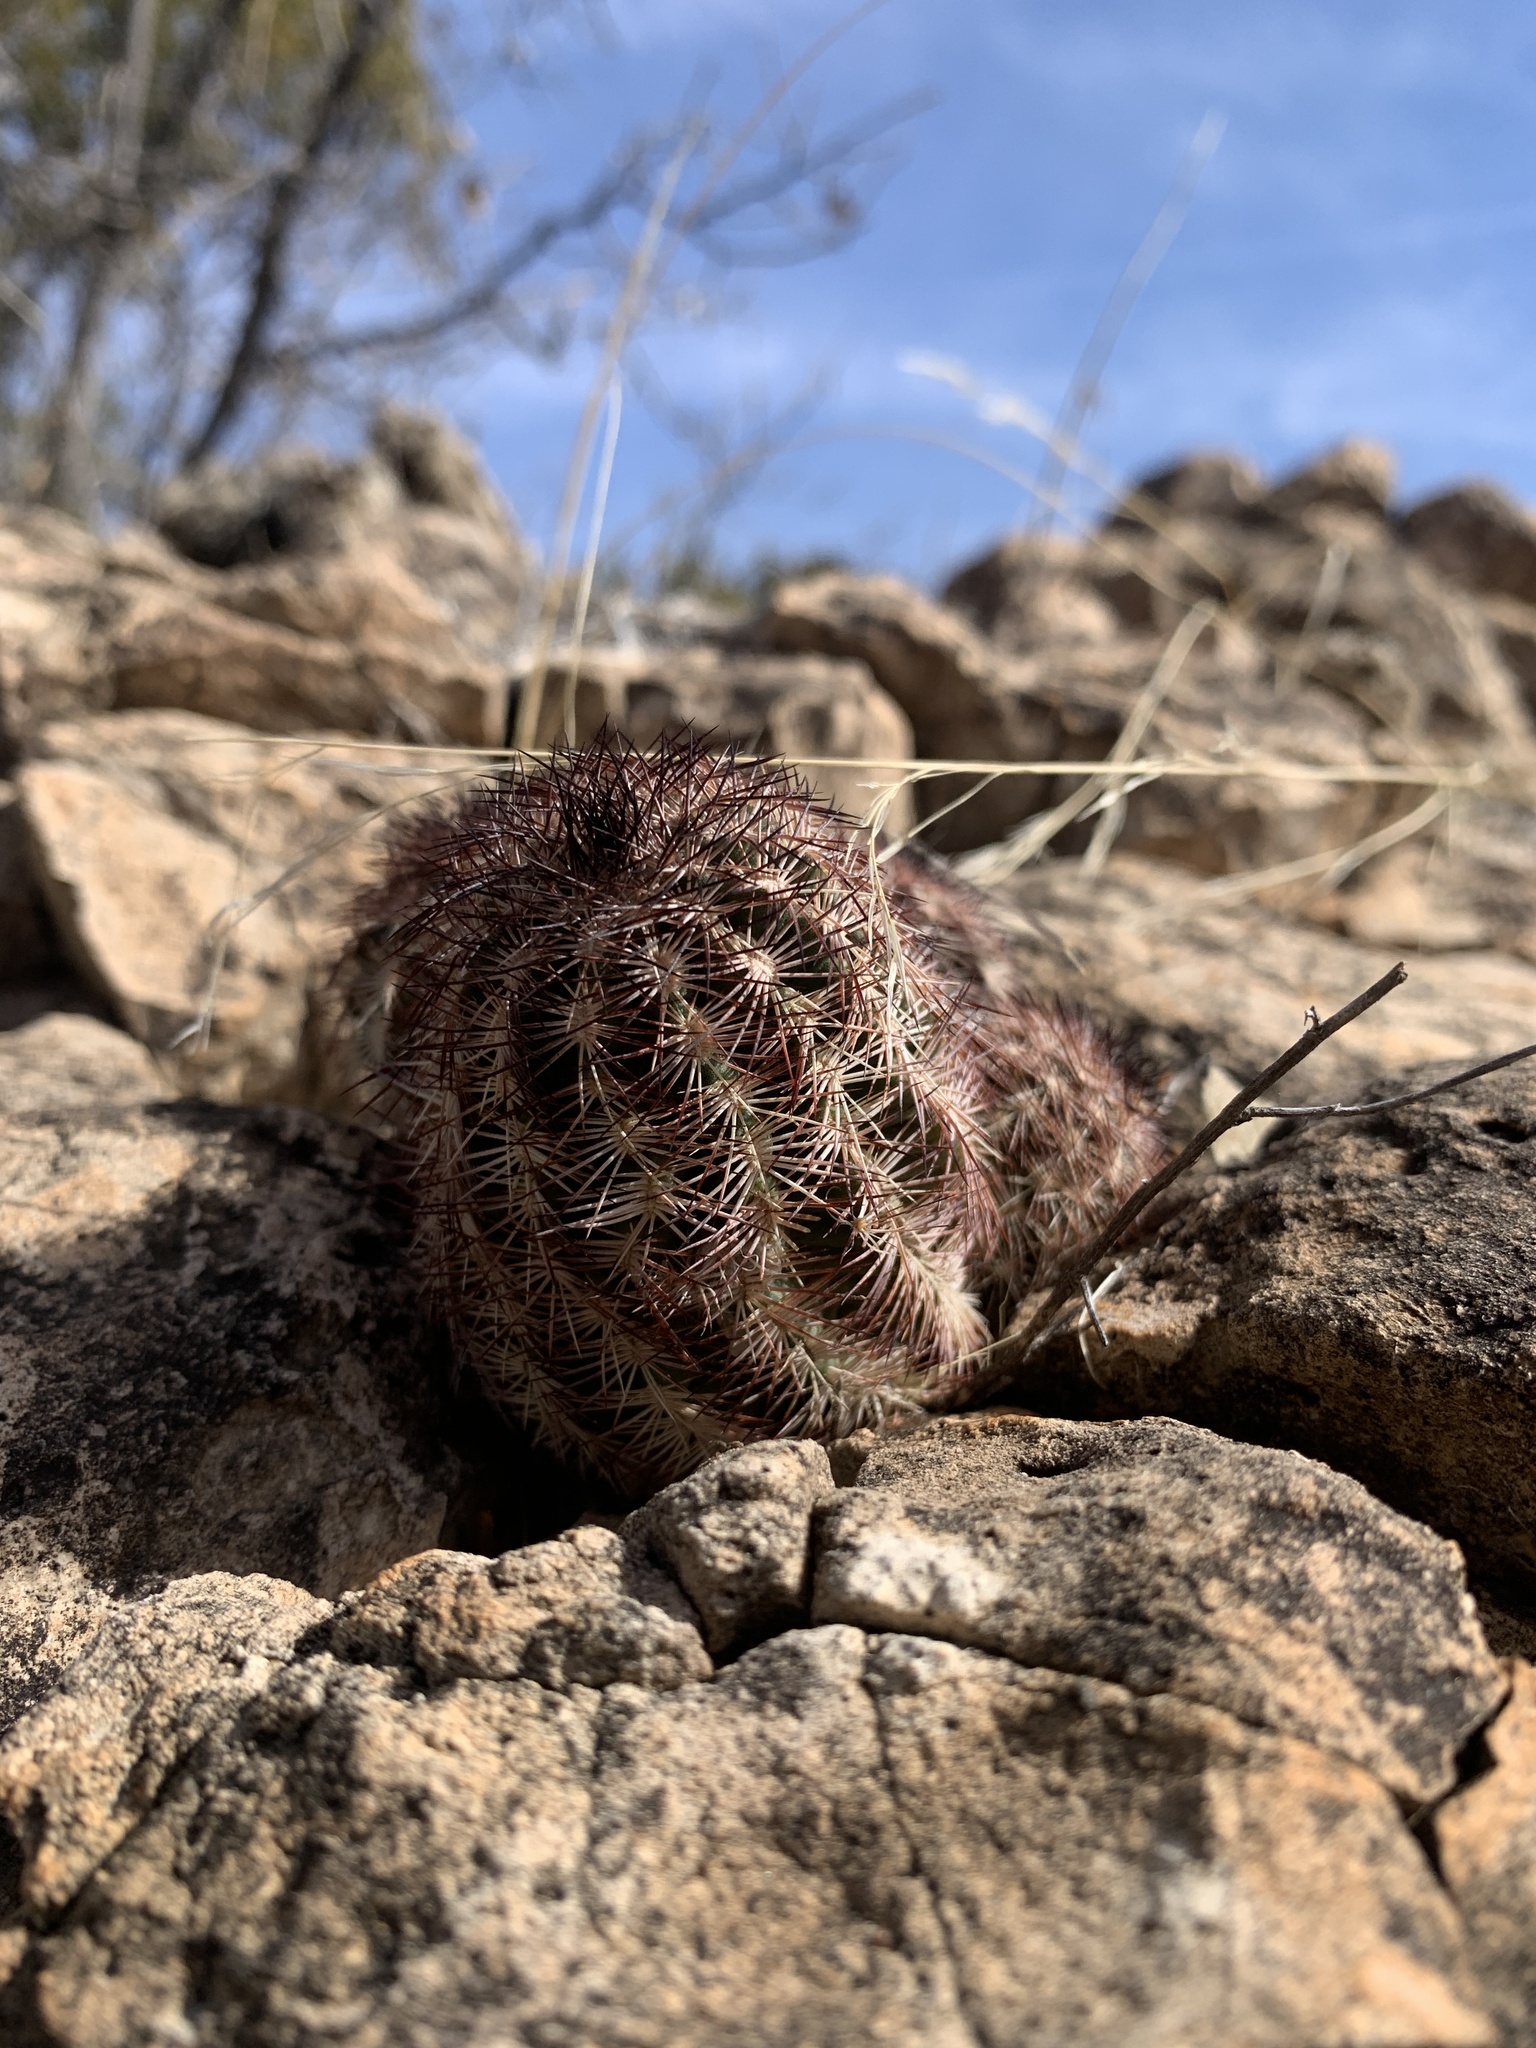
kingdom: Plantae
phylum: Tracheophyta
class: Magnoliopsida
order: Caryophyllales
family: Cactaceae
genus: Echinocereus
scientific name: Echinocereus reichenbachii
